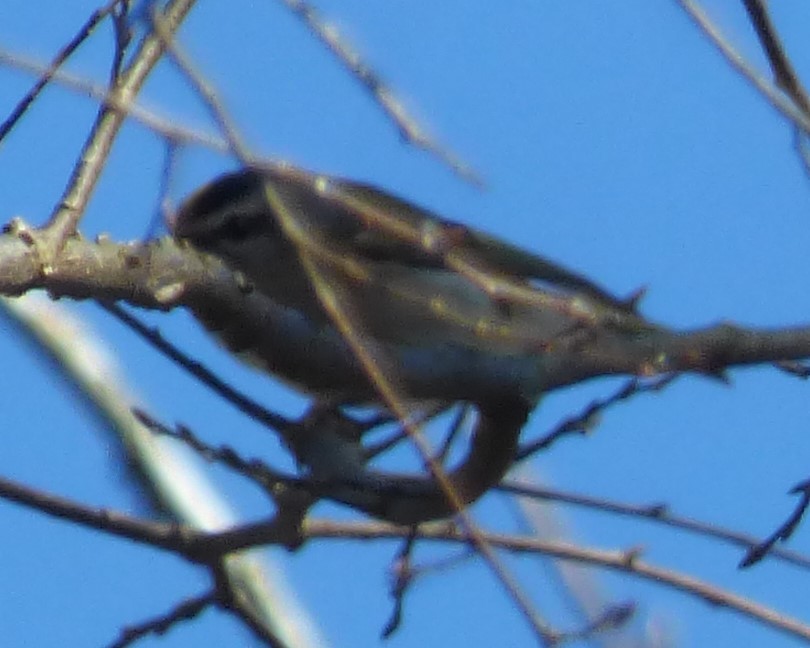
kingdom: Animalia
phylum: Chordata
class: Aves
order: Passeriformes
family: Regulidae
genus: Regulus
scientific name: Regulus satrapa
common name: Golden-crowned kinglet
